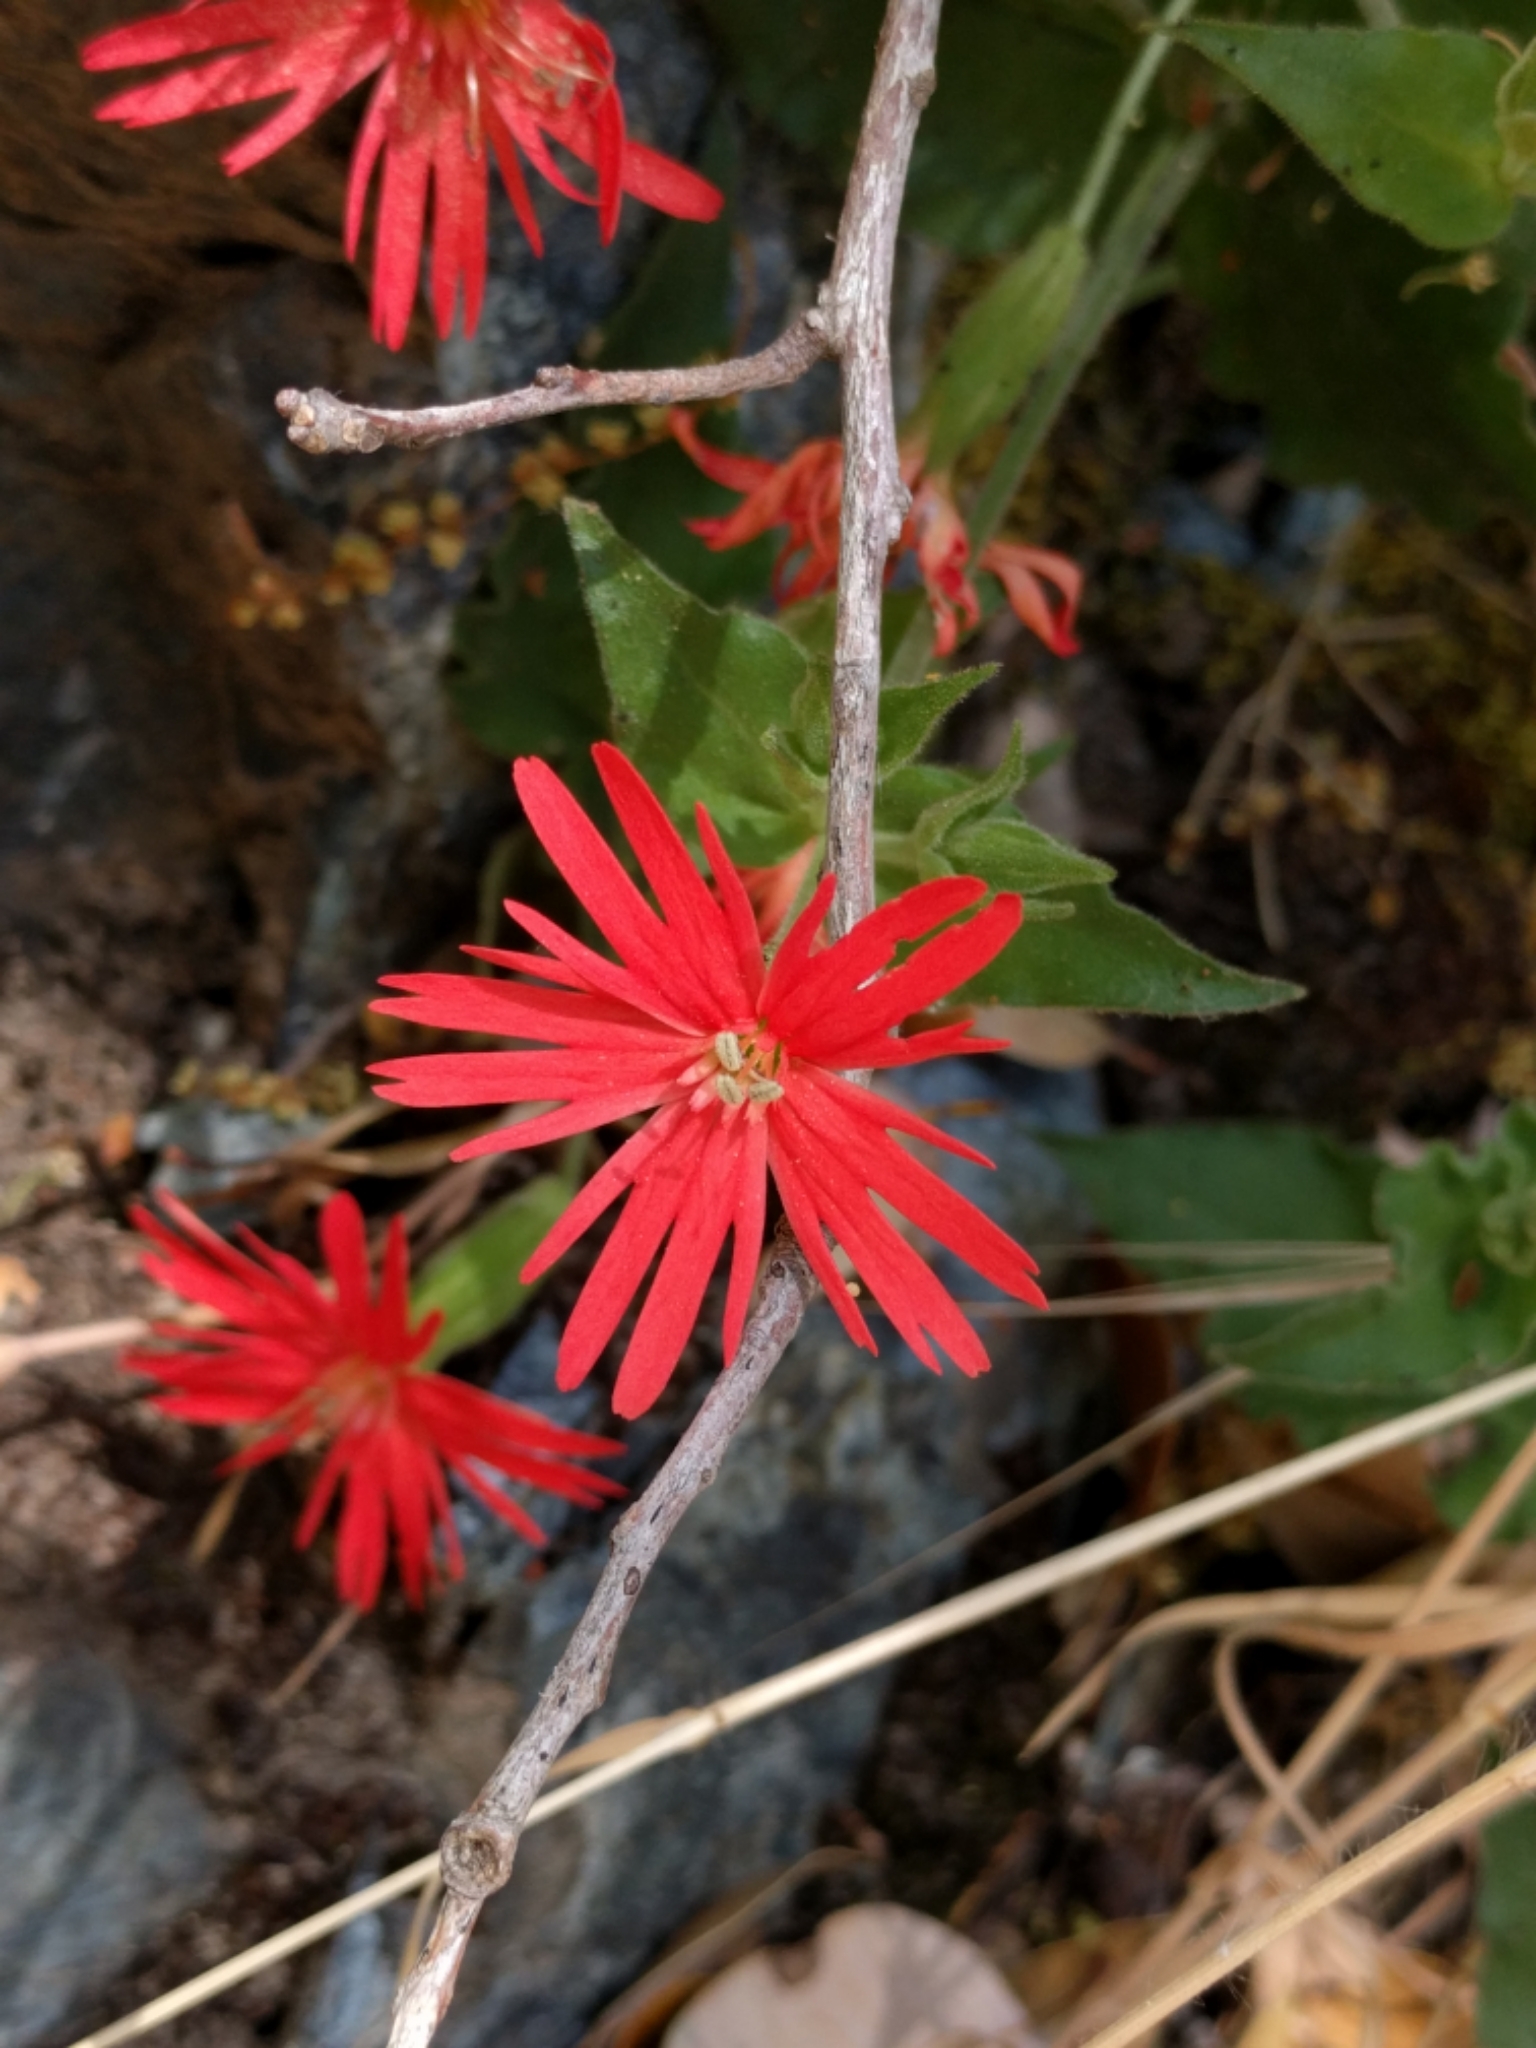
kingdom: Plantae
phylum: Tracheophyta
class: Magnoliopsida
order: Caryophyllales
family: Caryophyllaceae
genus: Silene
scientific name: Silene laciniata
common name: Indian-pink
